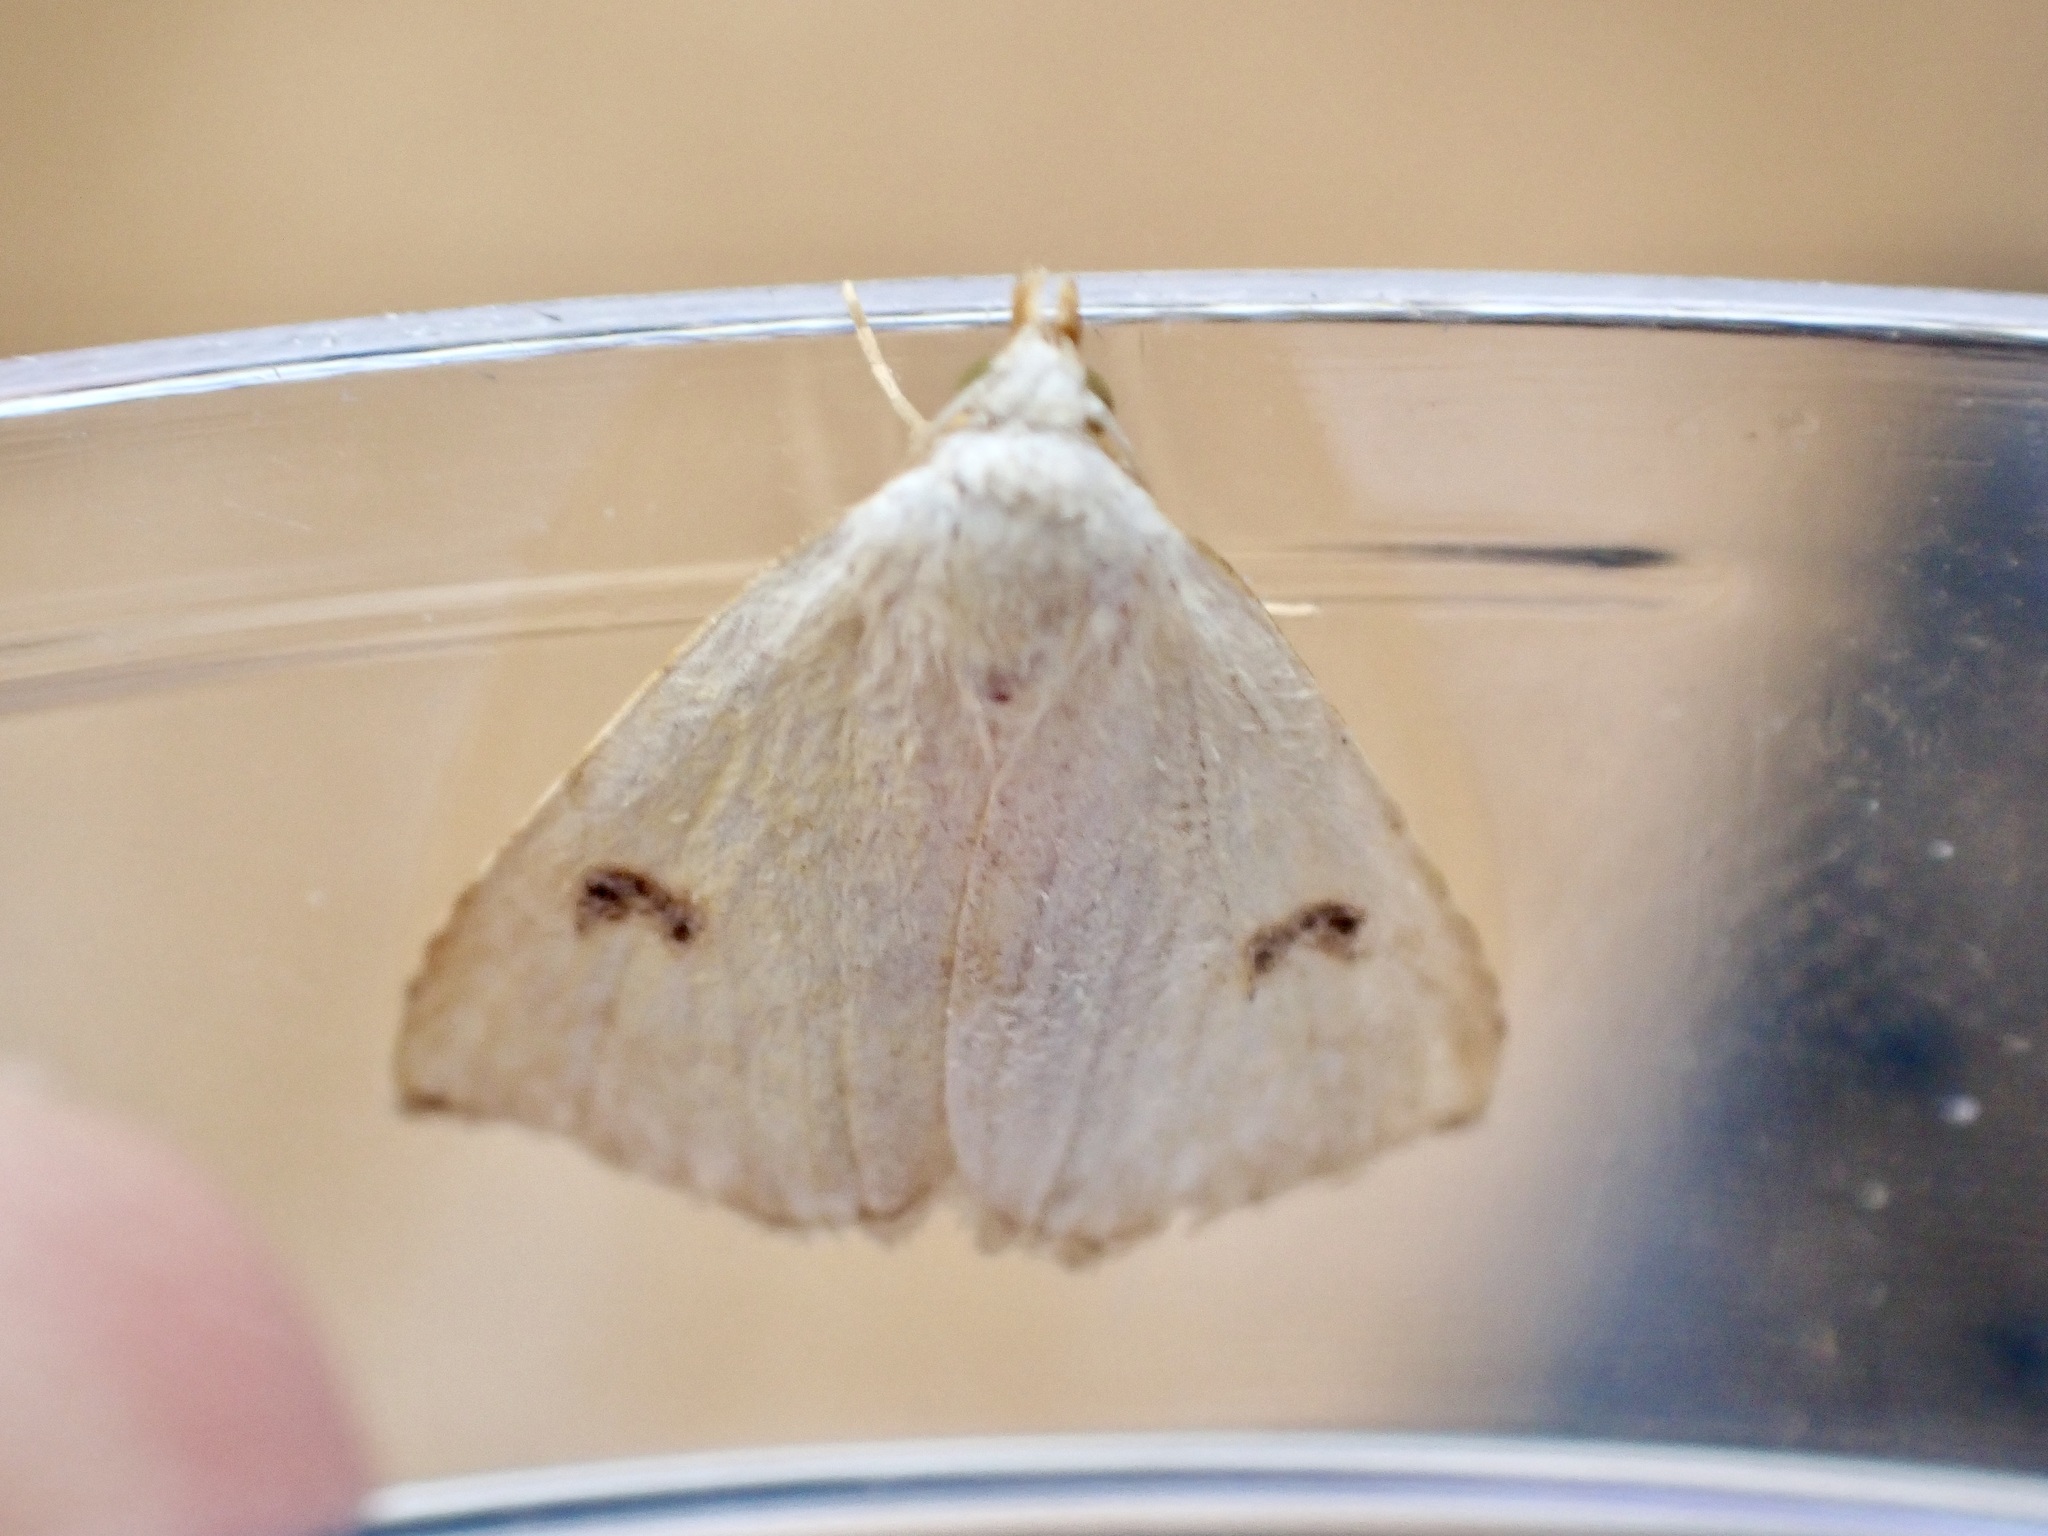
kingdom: Animalia
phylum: Arthropoda
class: Insecta
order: Lepidoptera
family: Erebidae
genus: Rivula
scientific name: Rivula sericealis
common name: Straw dot
